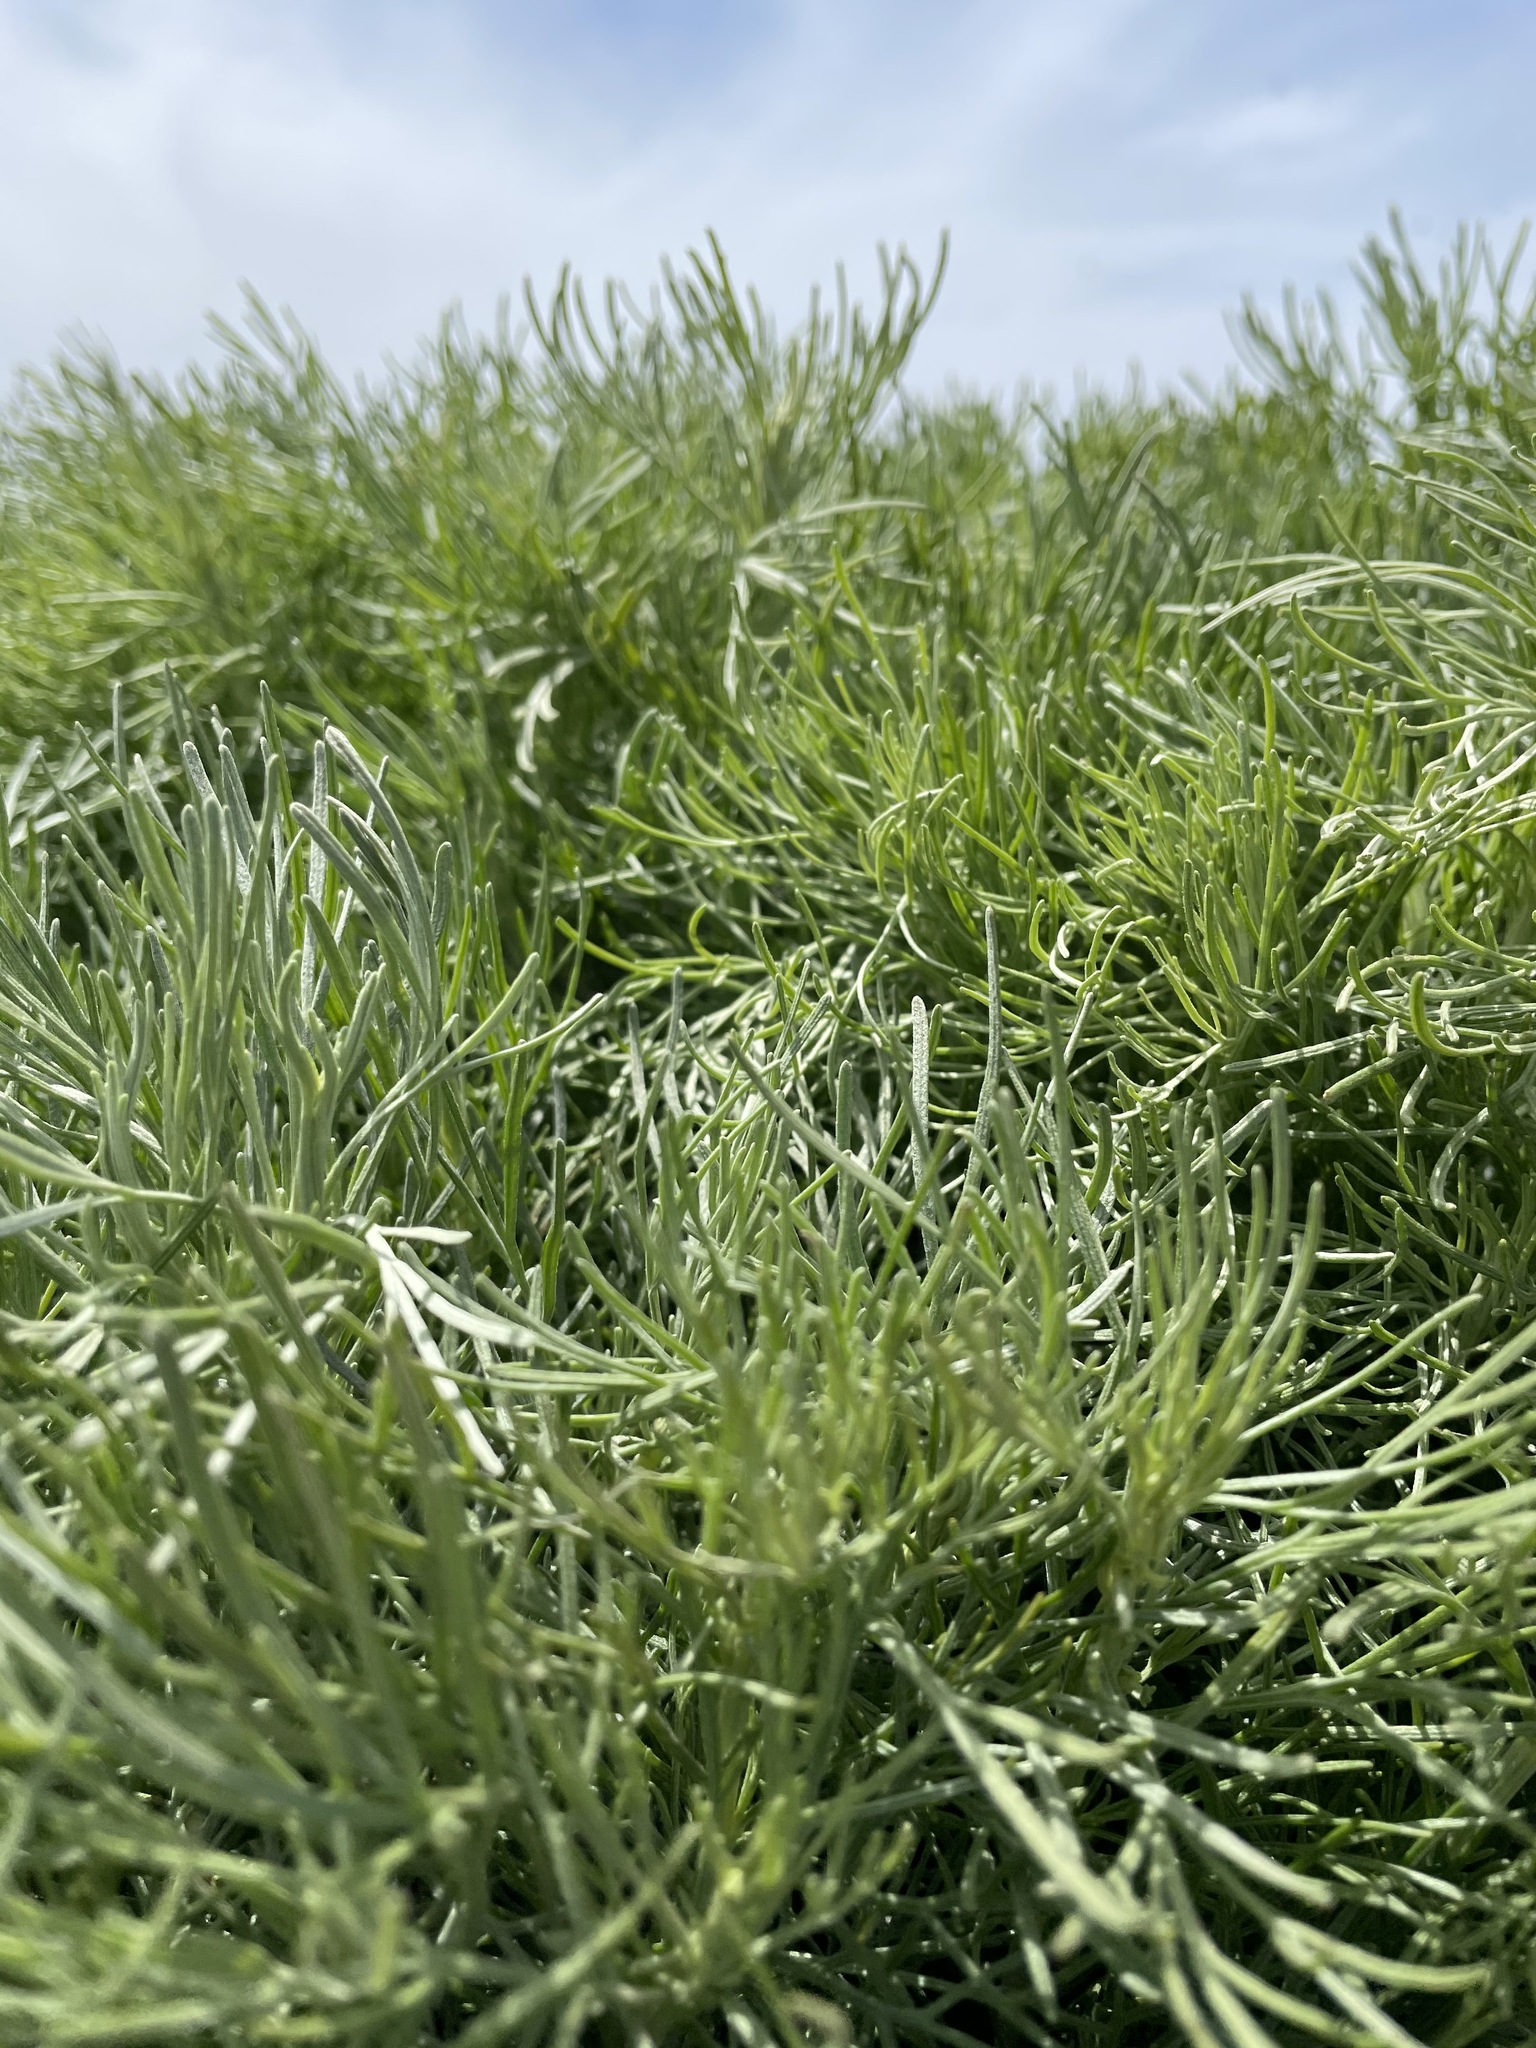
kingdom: Plantae
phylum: Tracheophyta
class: Magnoliopsida
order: Asterales
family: Asteraceae
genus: Artemisia
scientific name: Artemisia californica
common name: California sagebrush
